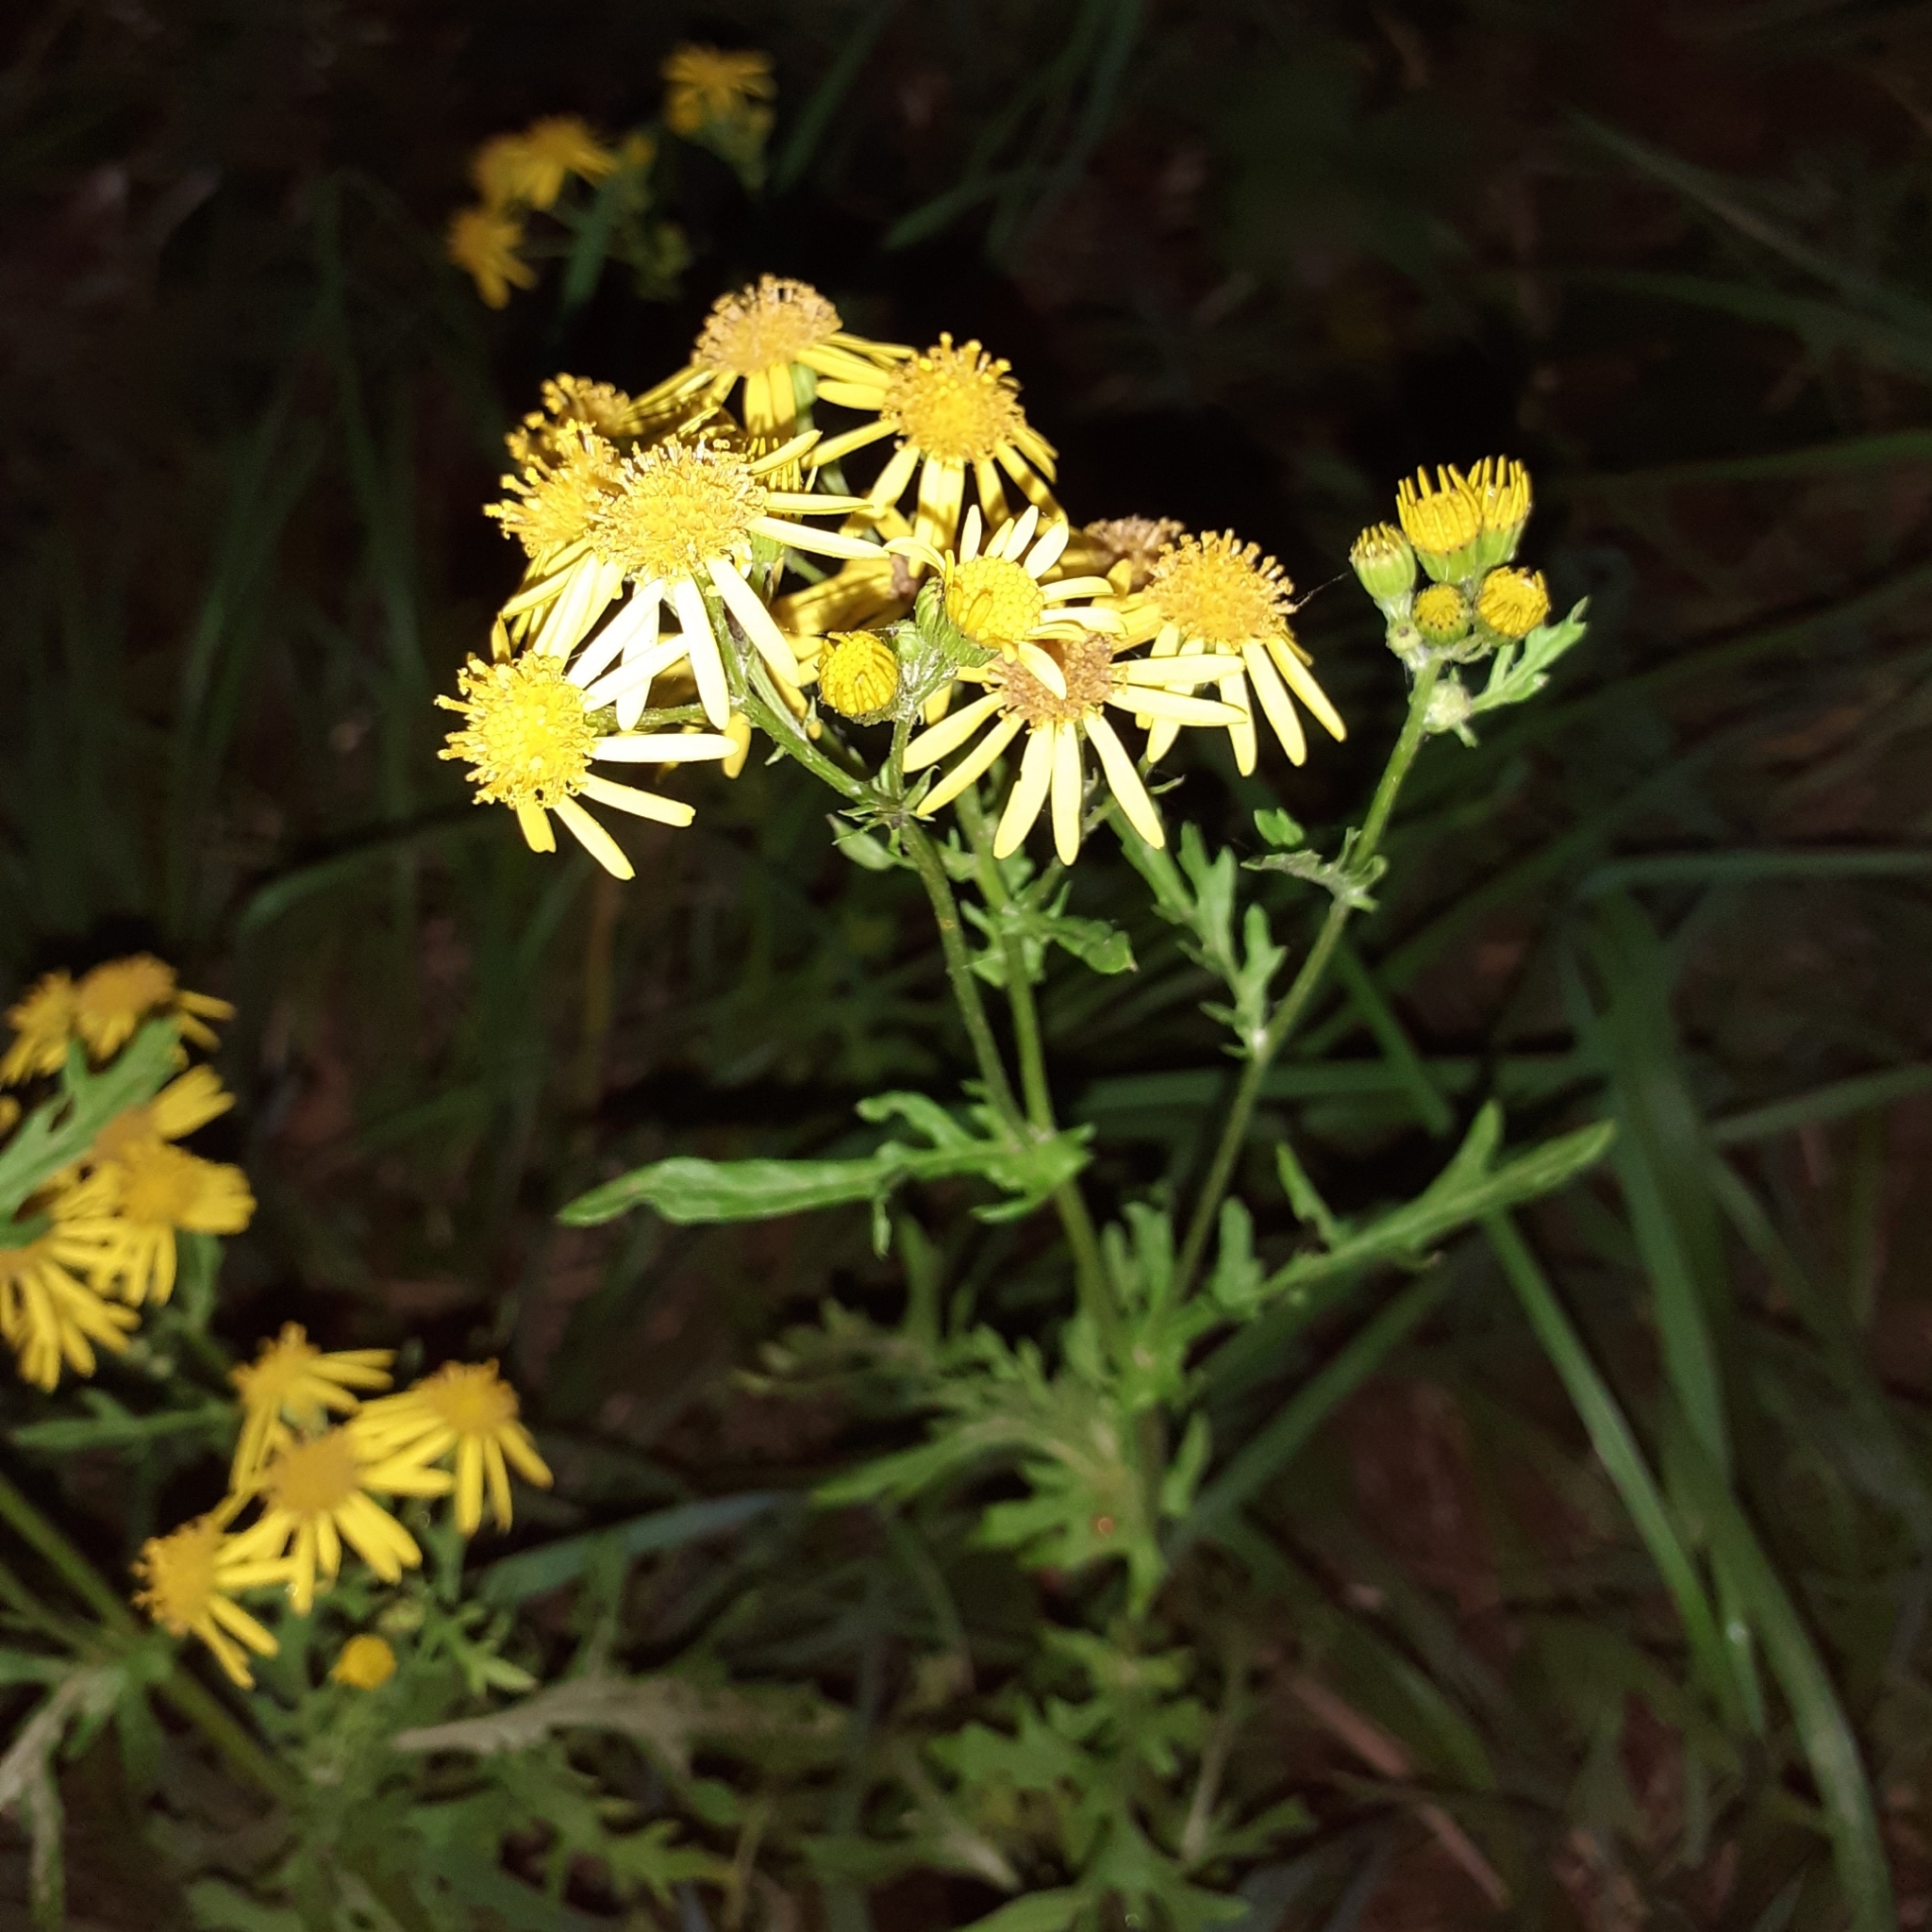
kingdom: Plantae
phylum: Tracheophyta
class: Magnoliopsida
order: Asterales
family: Asteraceae
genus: Jacobaea
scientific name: Jacobaea vulgaris
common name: Stinking willie
